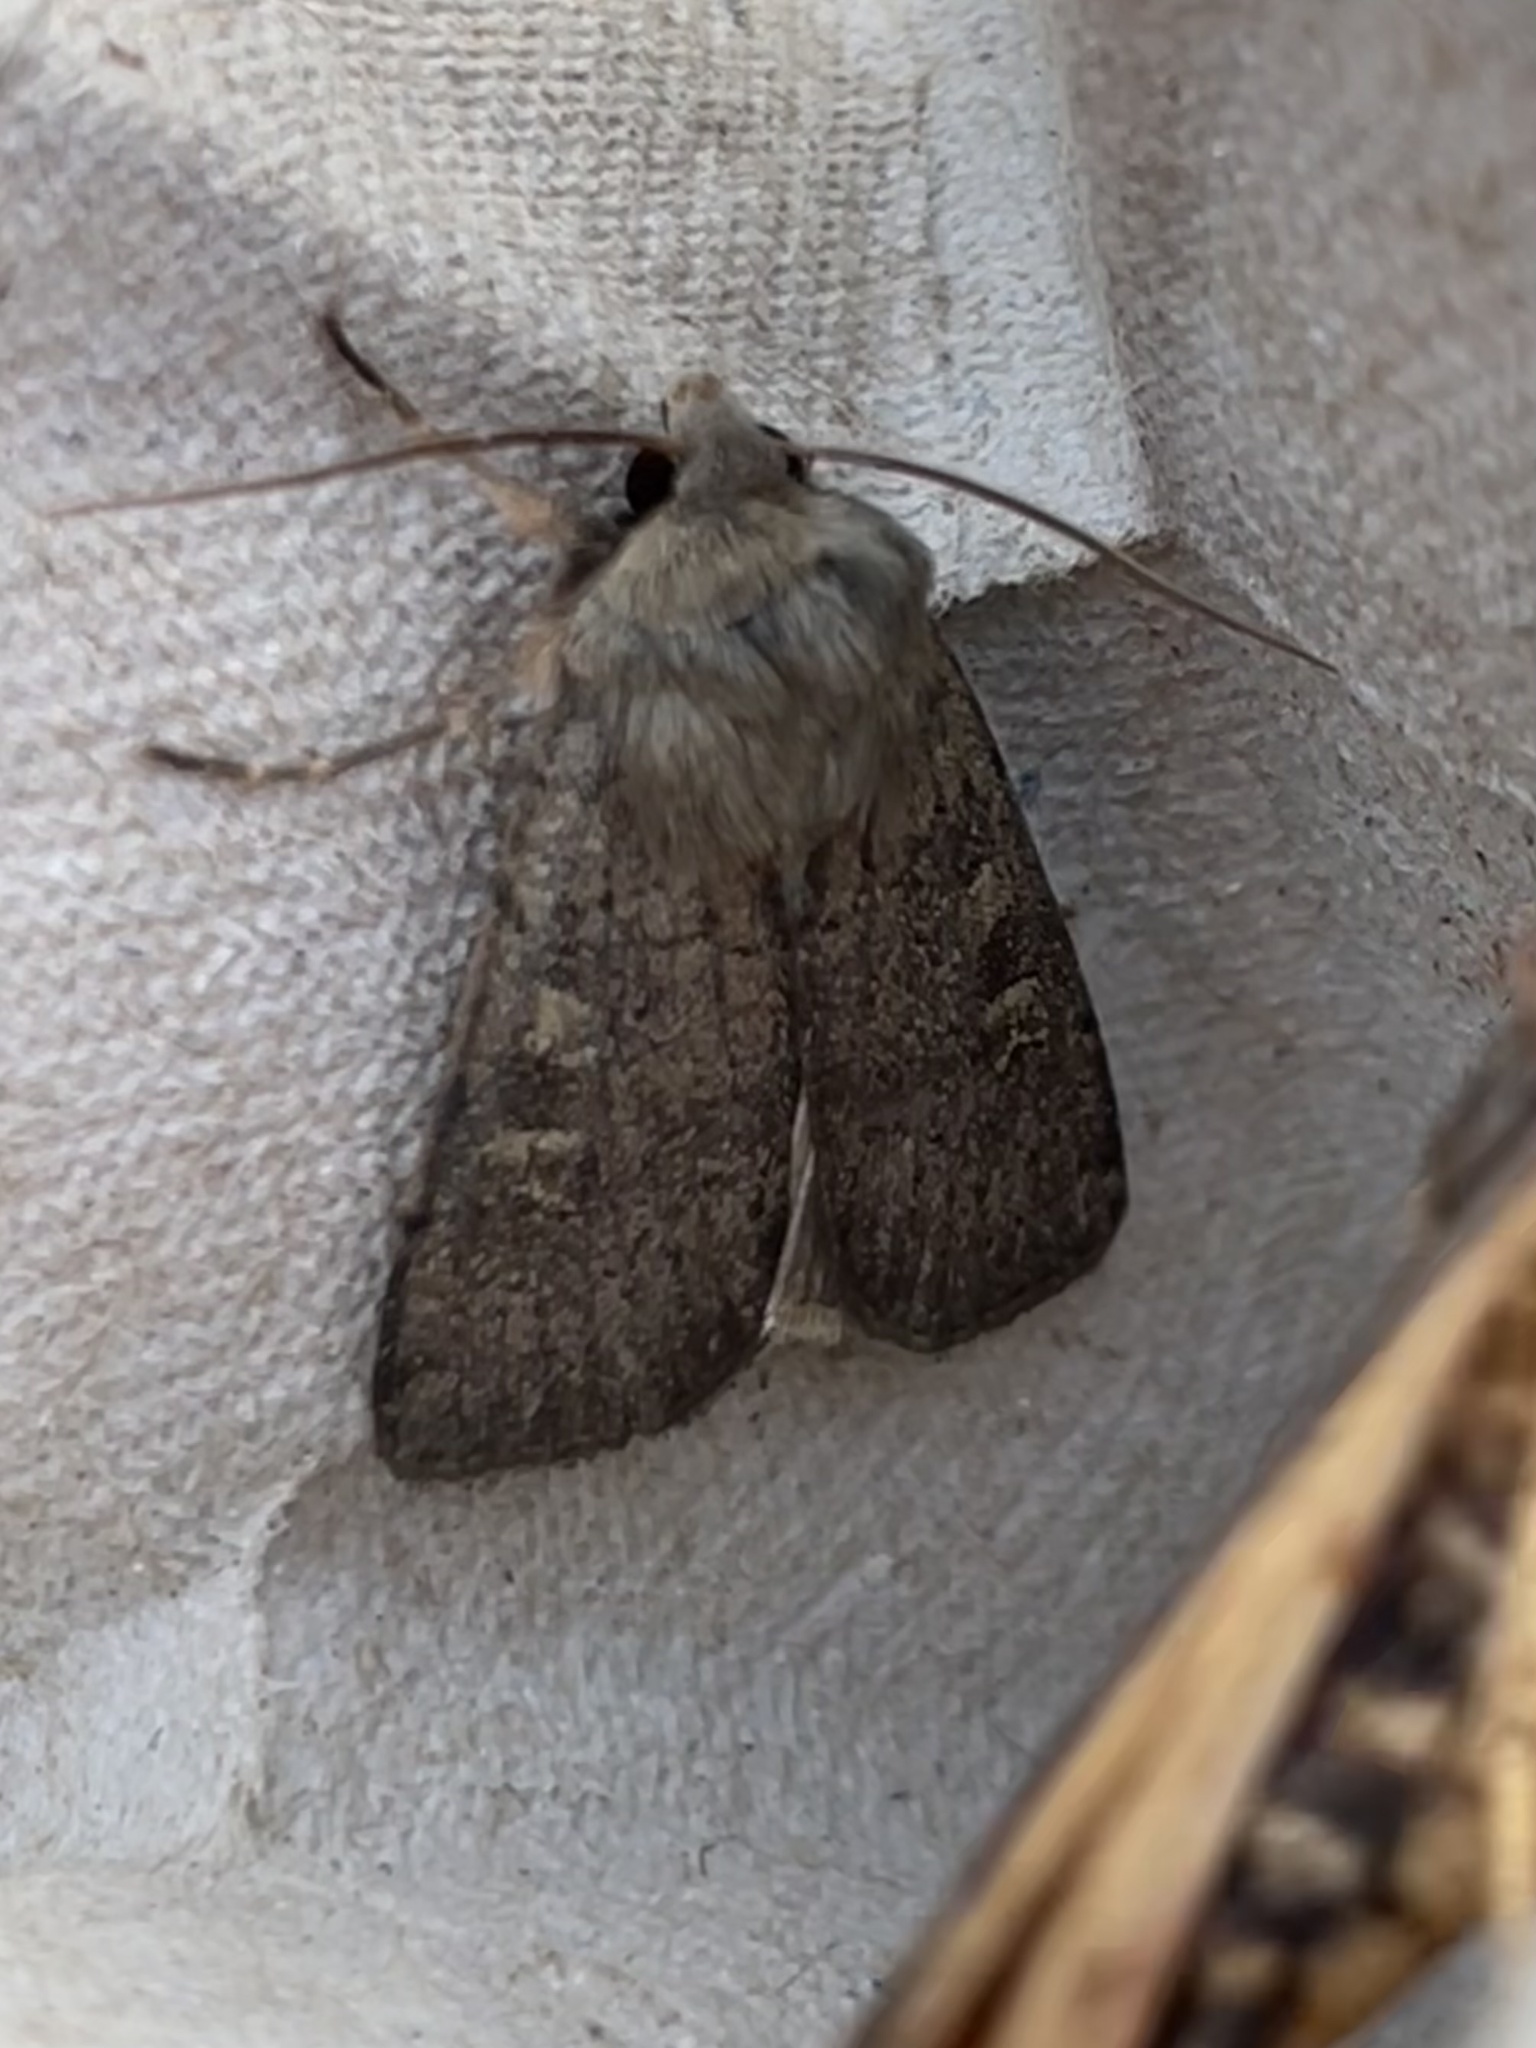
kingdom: Animalia
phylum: Arthropoda
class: Insecta
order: Lepidoptera
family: Noctuidae
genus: Xestia
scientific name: Xestia xanthographa
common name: Square-spot rustic
